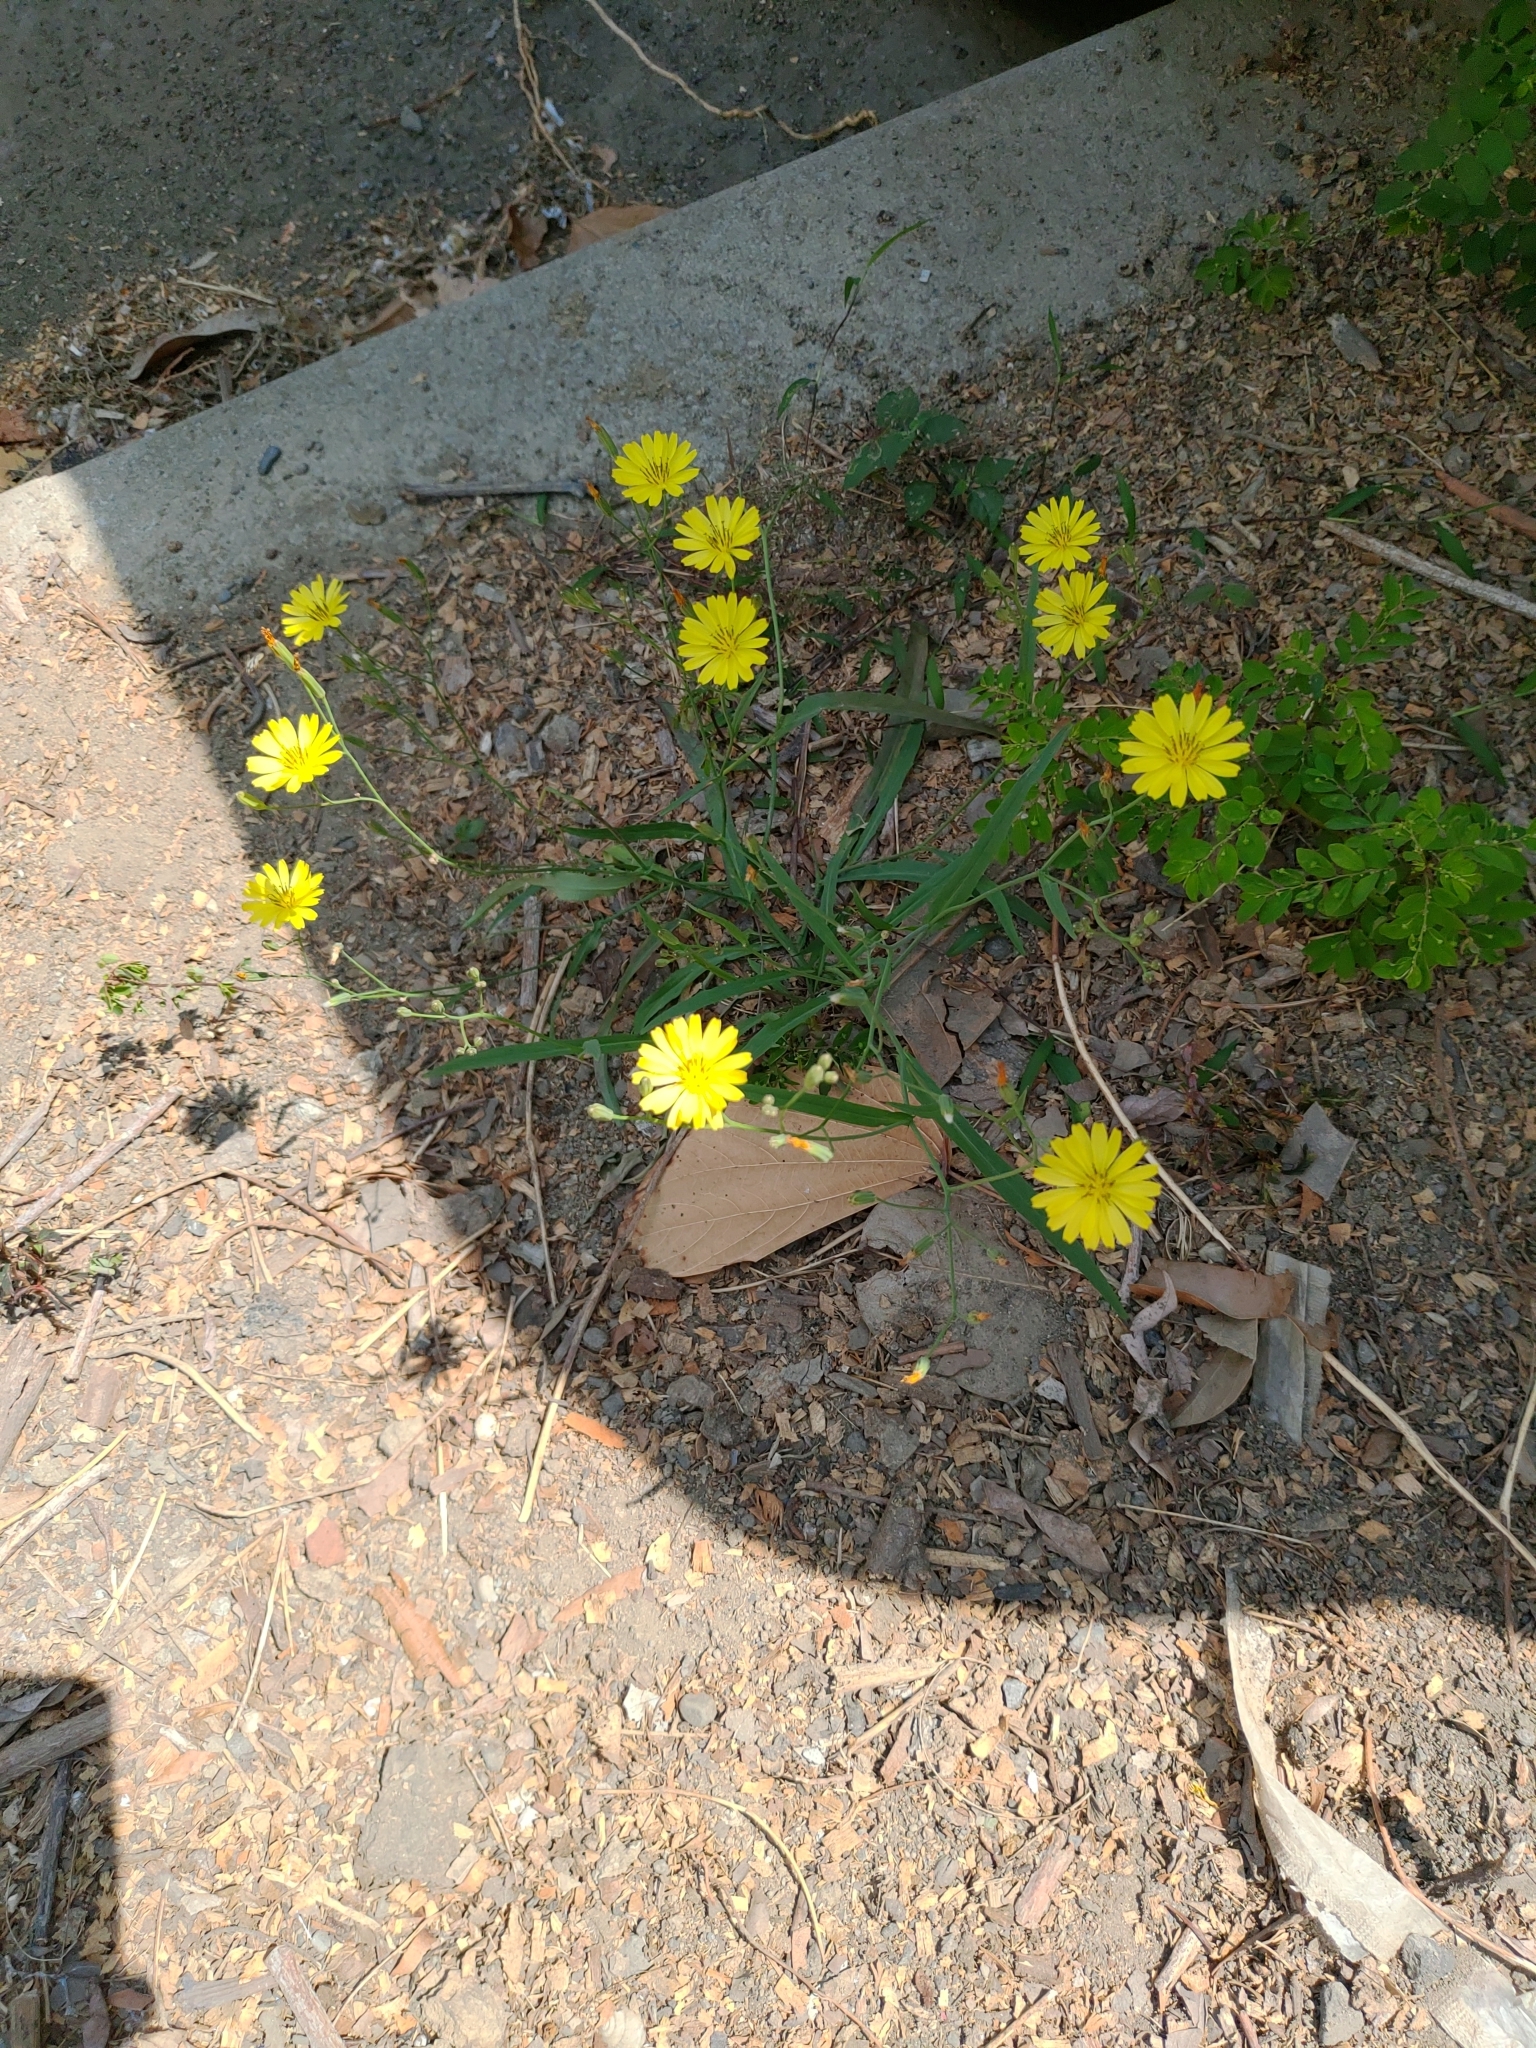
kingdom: Plantae
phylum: Tracheophyta
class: Magnoliopsida
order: Asterales
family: Asteraceae
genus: Ixeris
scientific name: Ixeris chinensis
